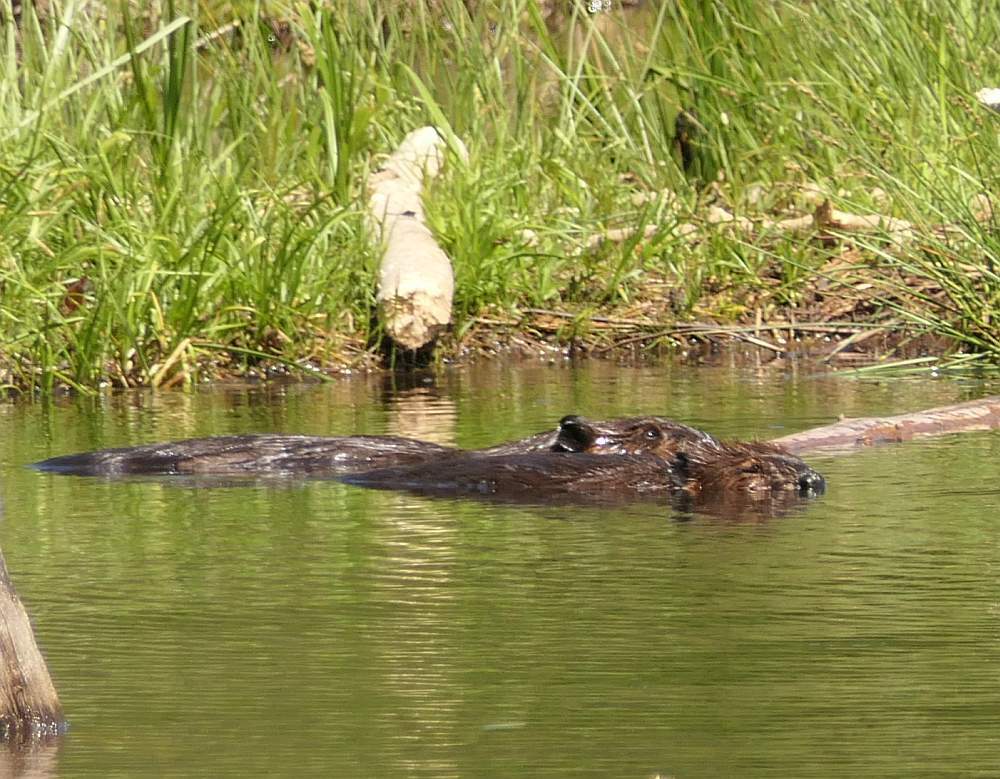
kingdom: Animalia
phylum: Chordata
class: Mammalia
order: Rodentia
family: Castoridae
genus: Castor
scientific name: Castor canadensis
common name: American beaver
